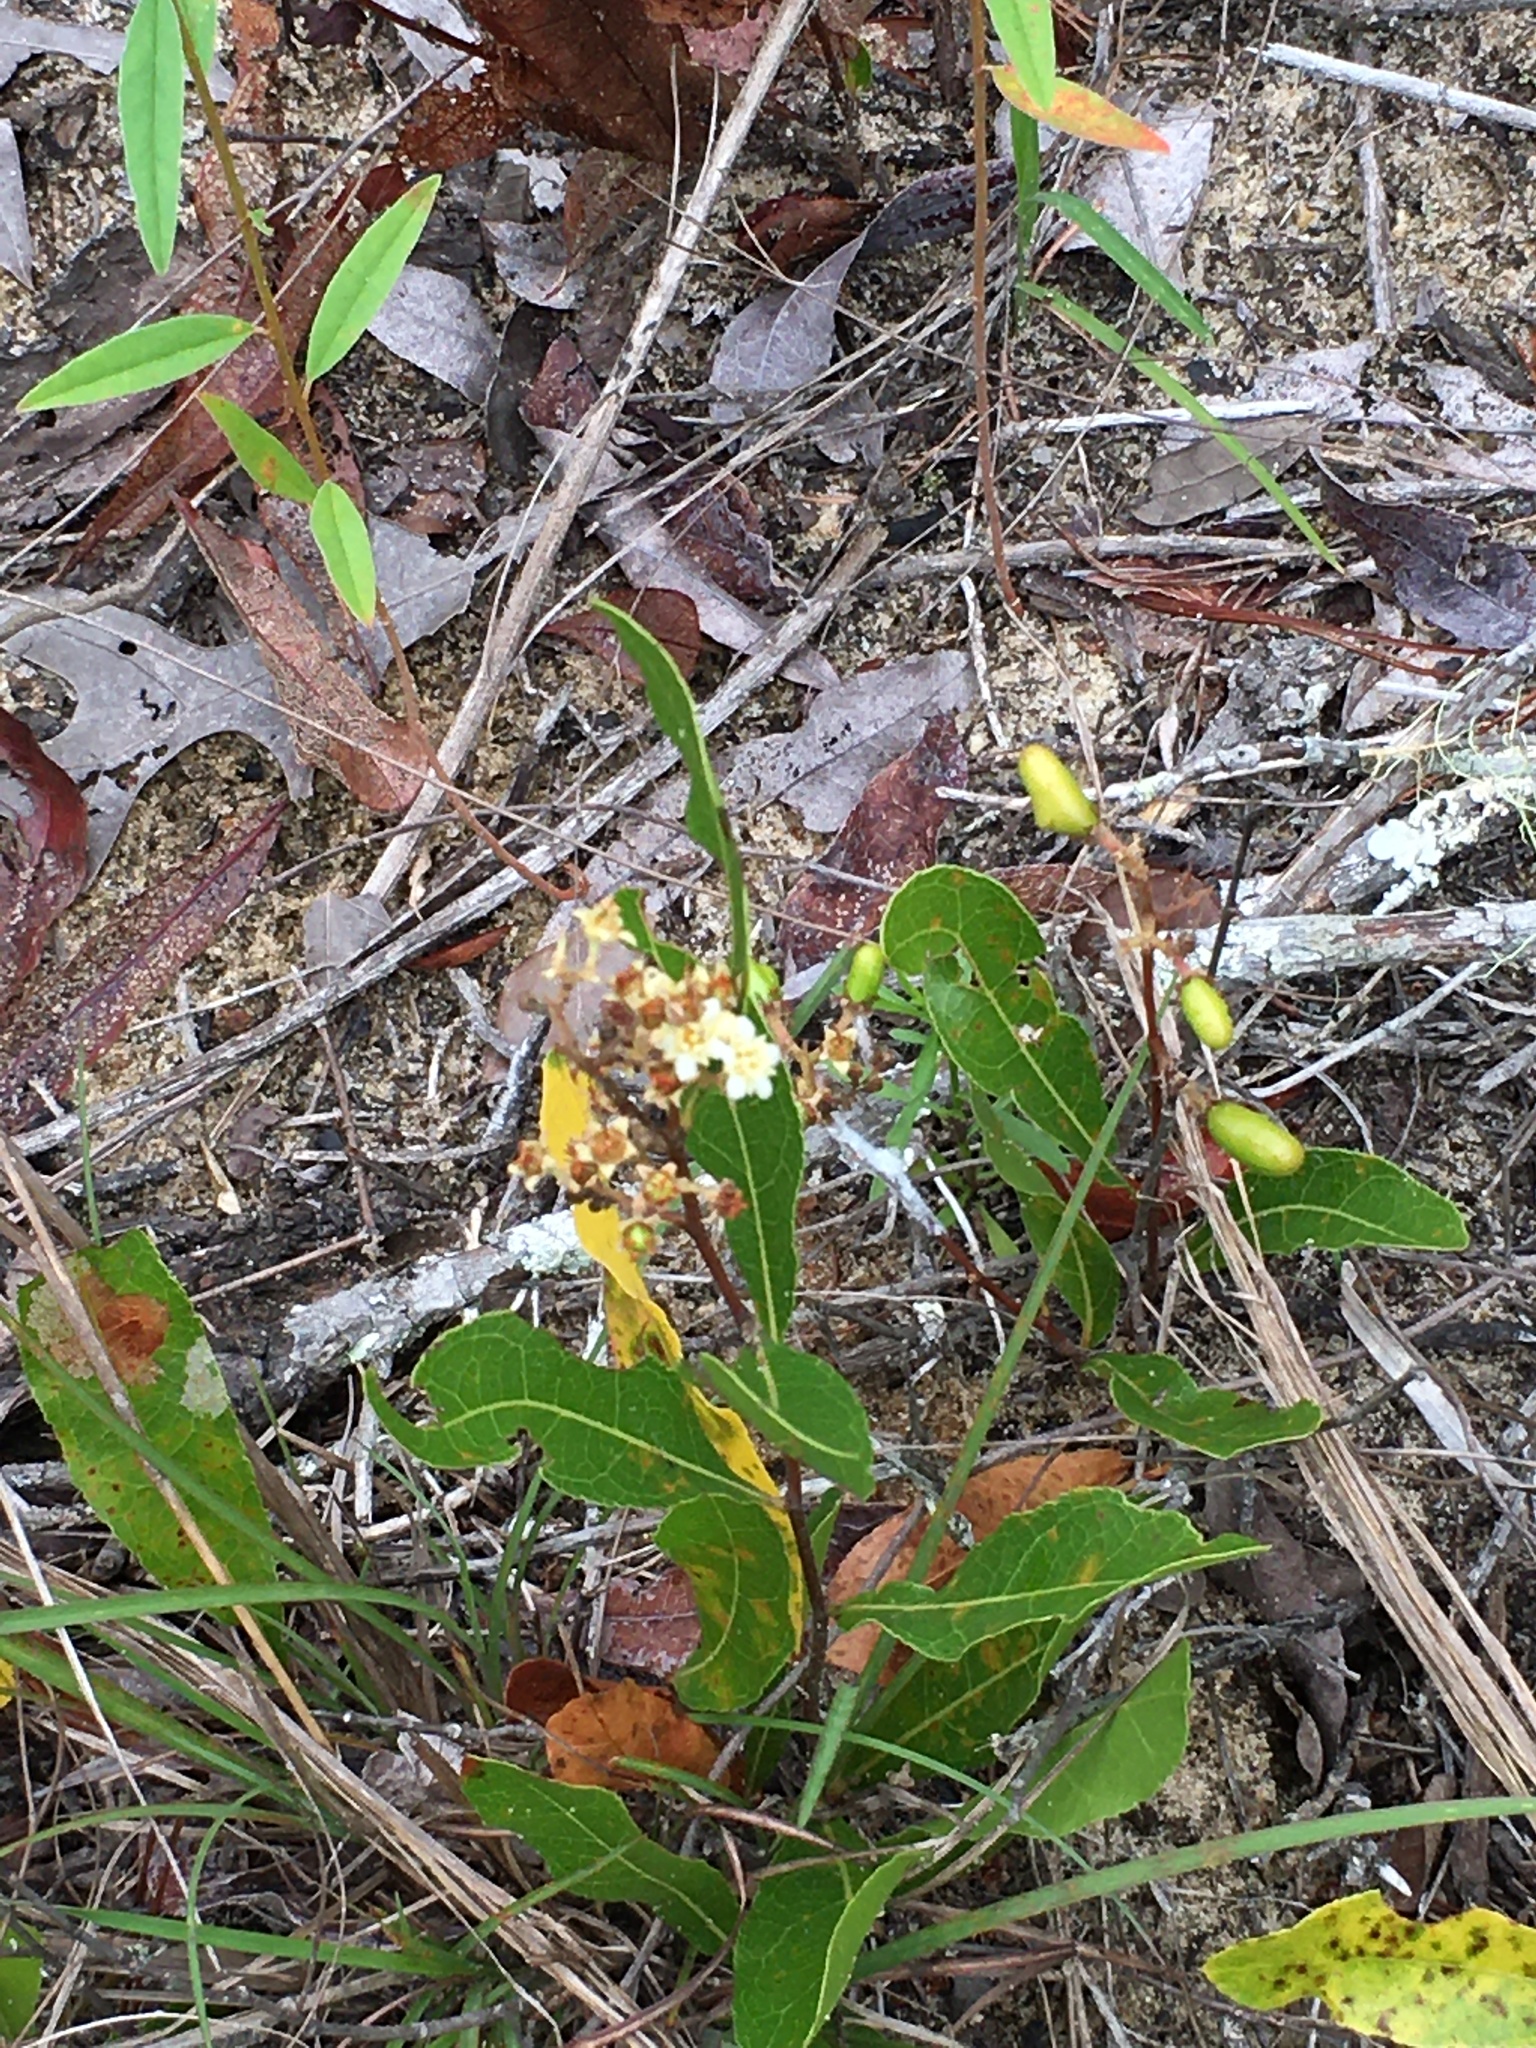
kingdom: Plantae
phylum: Tracheophyta
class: Magnoliopsida
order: Malpighiales
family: Chrysobalanaceae
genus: Geobalanus
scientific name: Geobalanus oblongifolius
